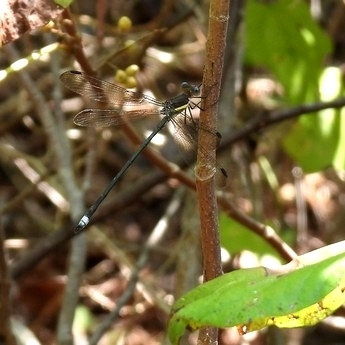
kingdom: Animalia
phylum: Arthropoda
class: Insecta
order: Odonata
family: Lestidae
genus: Archilestes
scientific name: Archilestes grandis
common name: Great spreadwing
